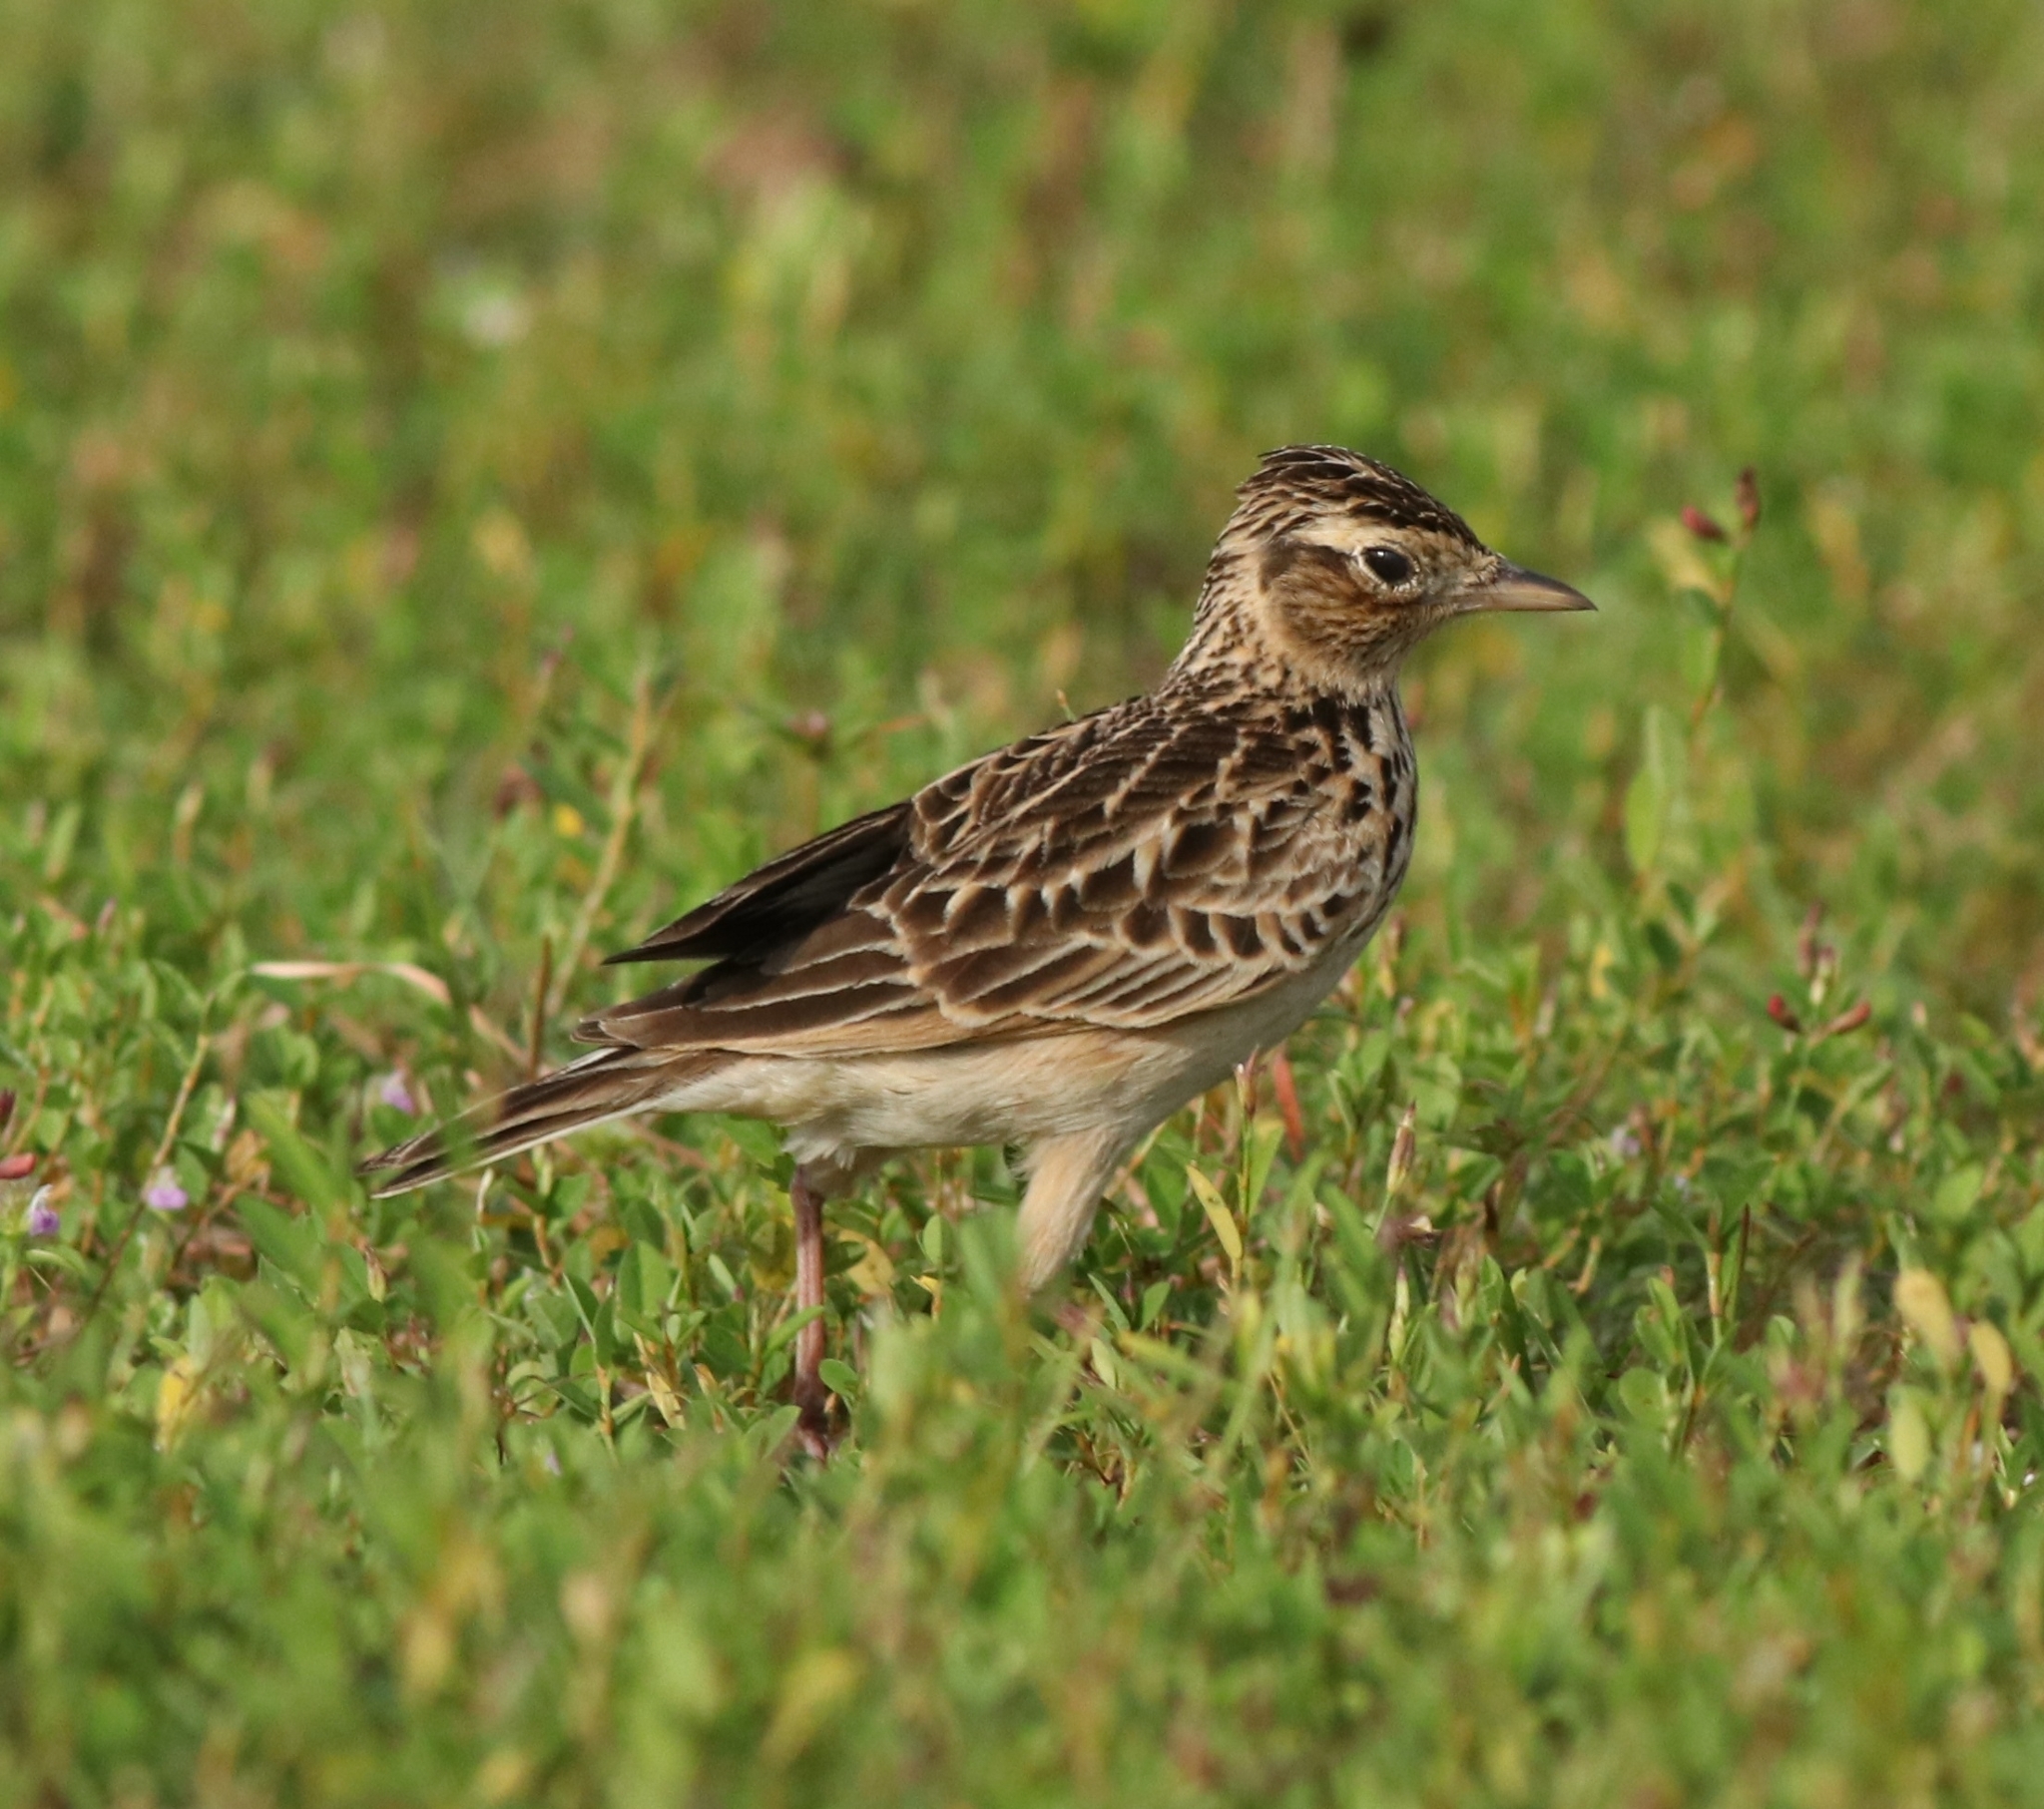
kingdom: Animalia
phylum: Chordata
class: Aves
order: Passeriformes
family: Alaudidae
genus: Alauda
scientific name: Alauda gulgula
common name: Oriental skylark
